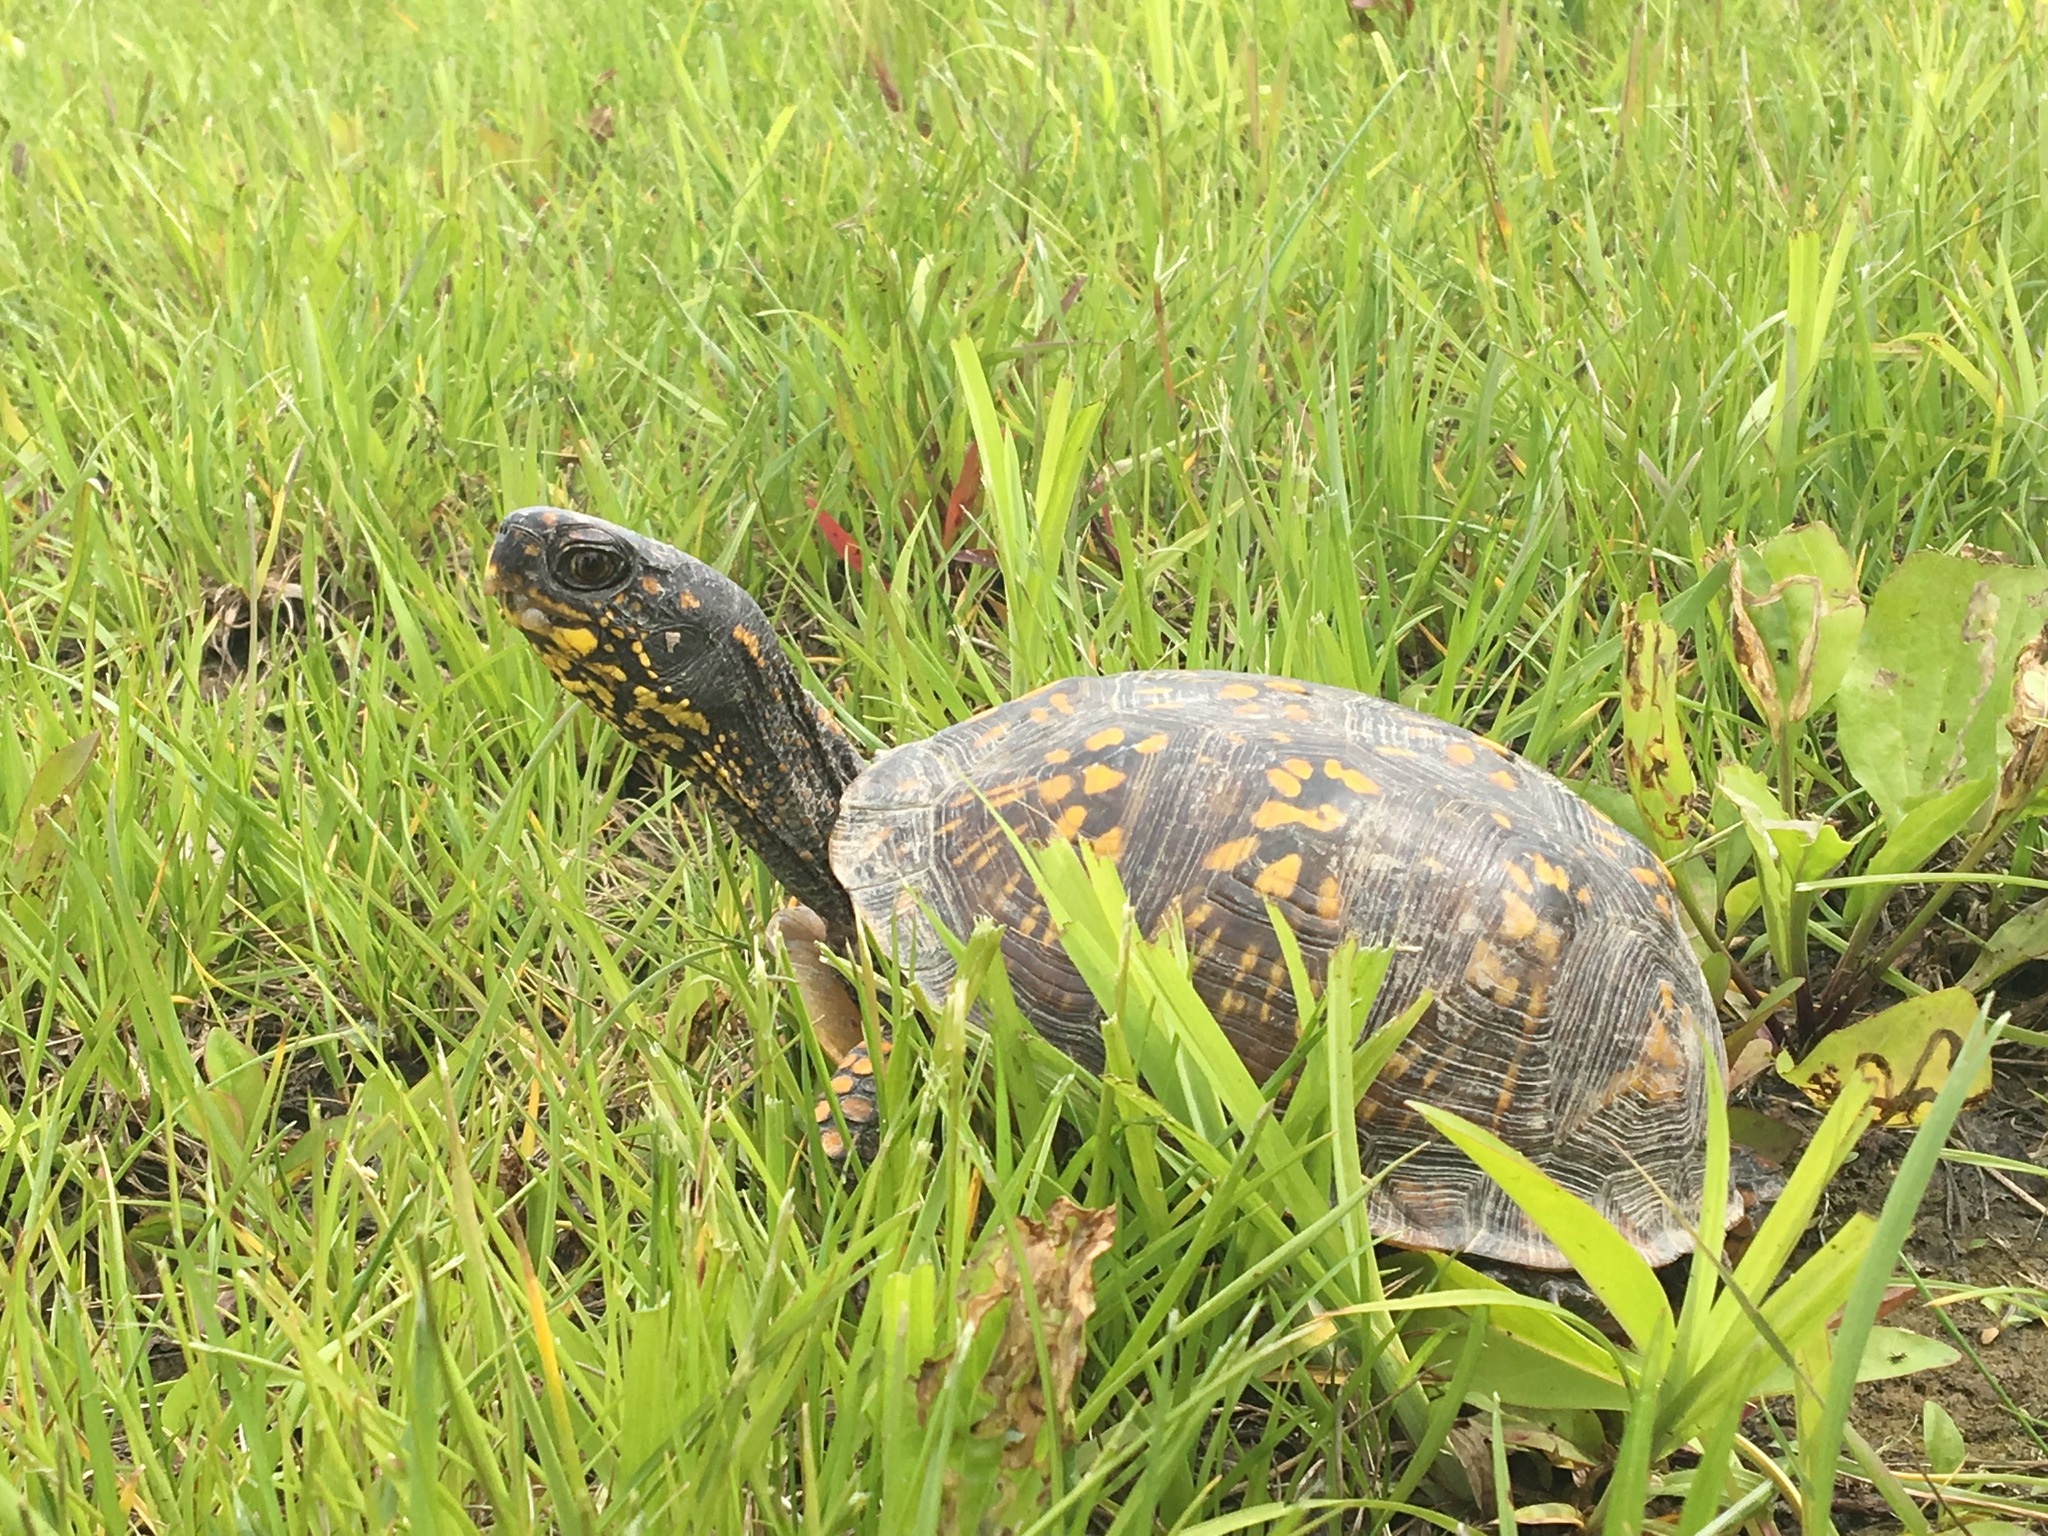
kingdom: Animalia
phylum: Chordata
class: Testudines
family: Emydidae
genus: Terrapene
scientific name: Terrapene carolina
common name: Common box turtle
